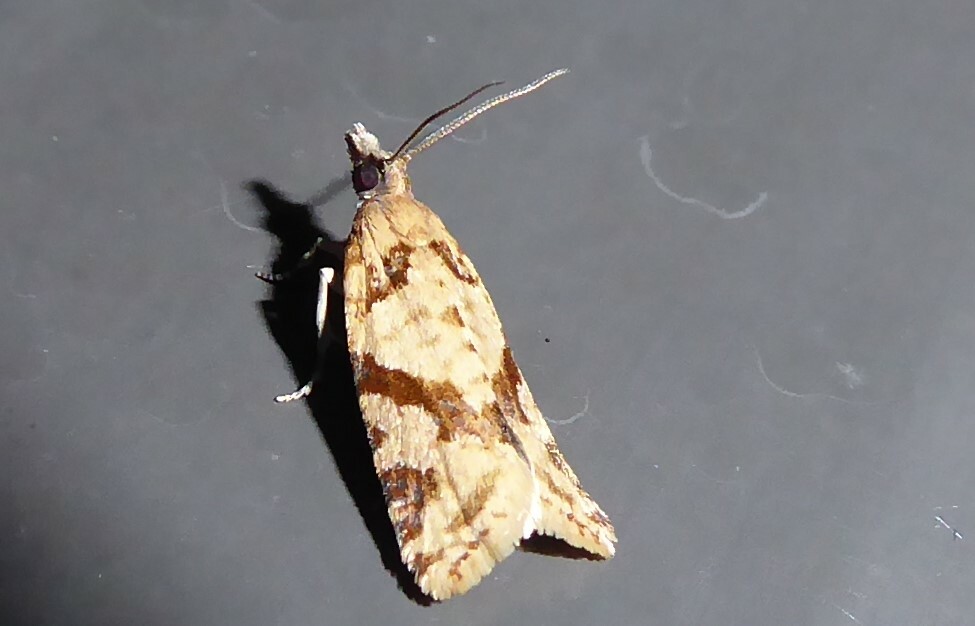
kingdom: Animalia
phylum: Arthropoda
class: Insecta
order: Lepidoptera
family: Tortricidae
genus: Capua
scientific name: Capua semiferana
